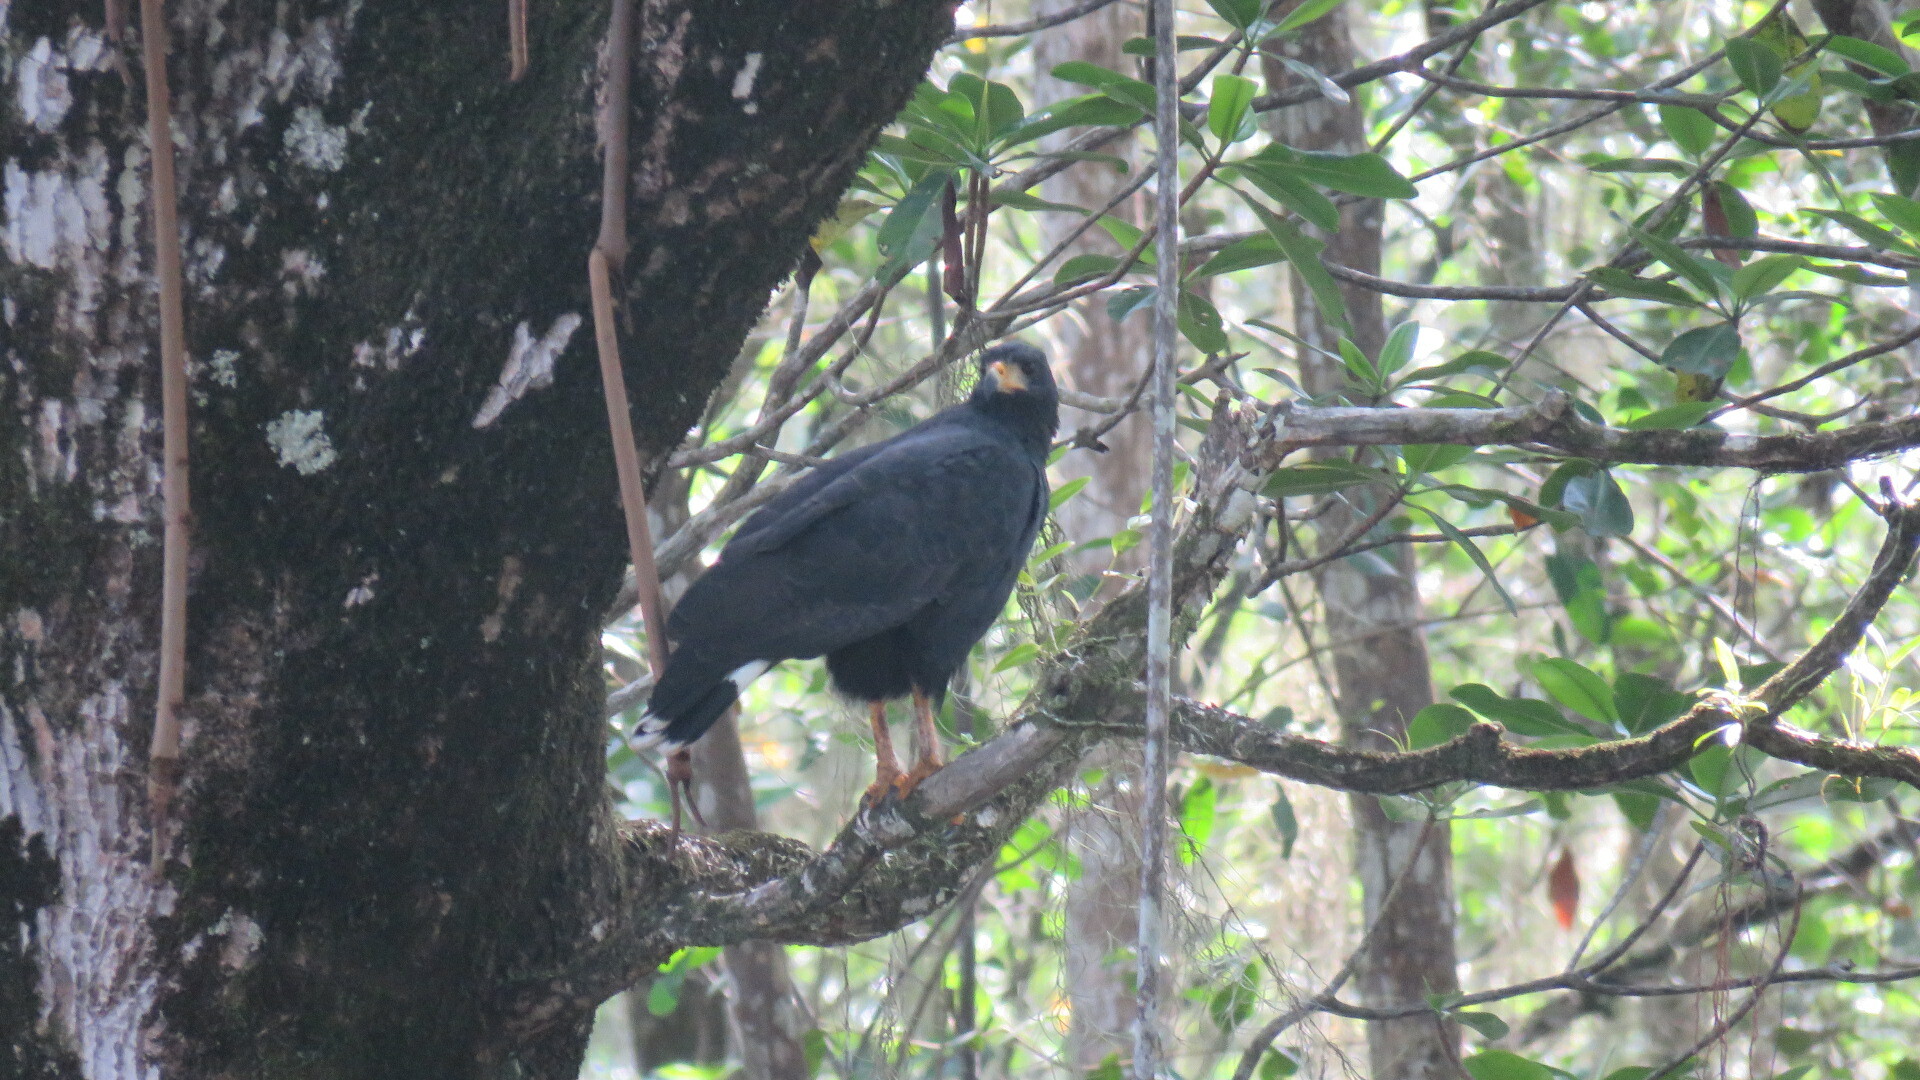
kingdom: Animalia
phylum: Chordata
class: Aves
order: Accipitriformes
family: Accipitridae
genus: Buteogallus
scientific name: Buteogallus anthracinus
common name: Common black hawk
